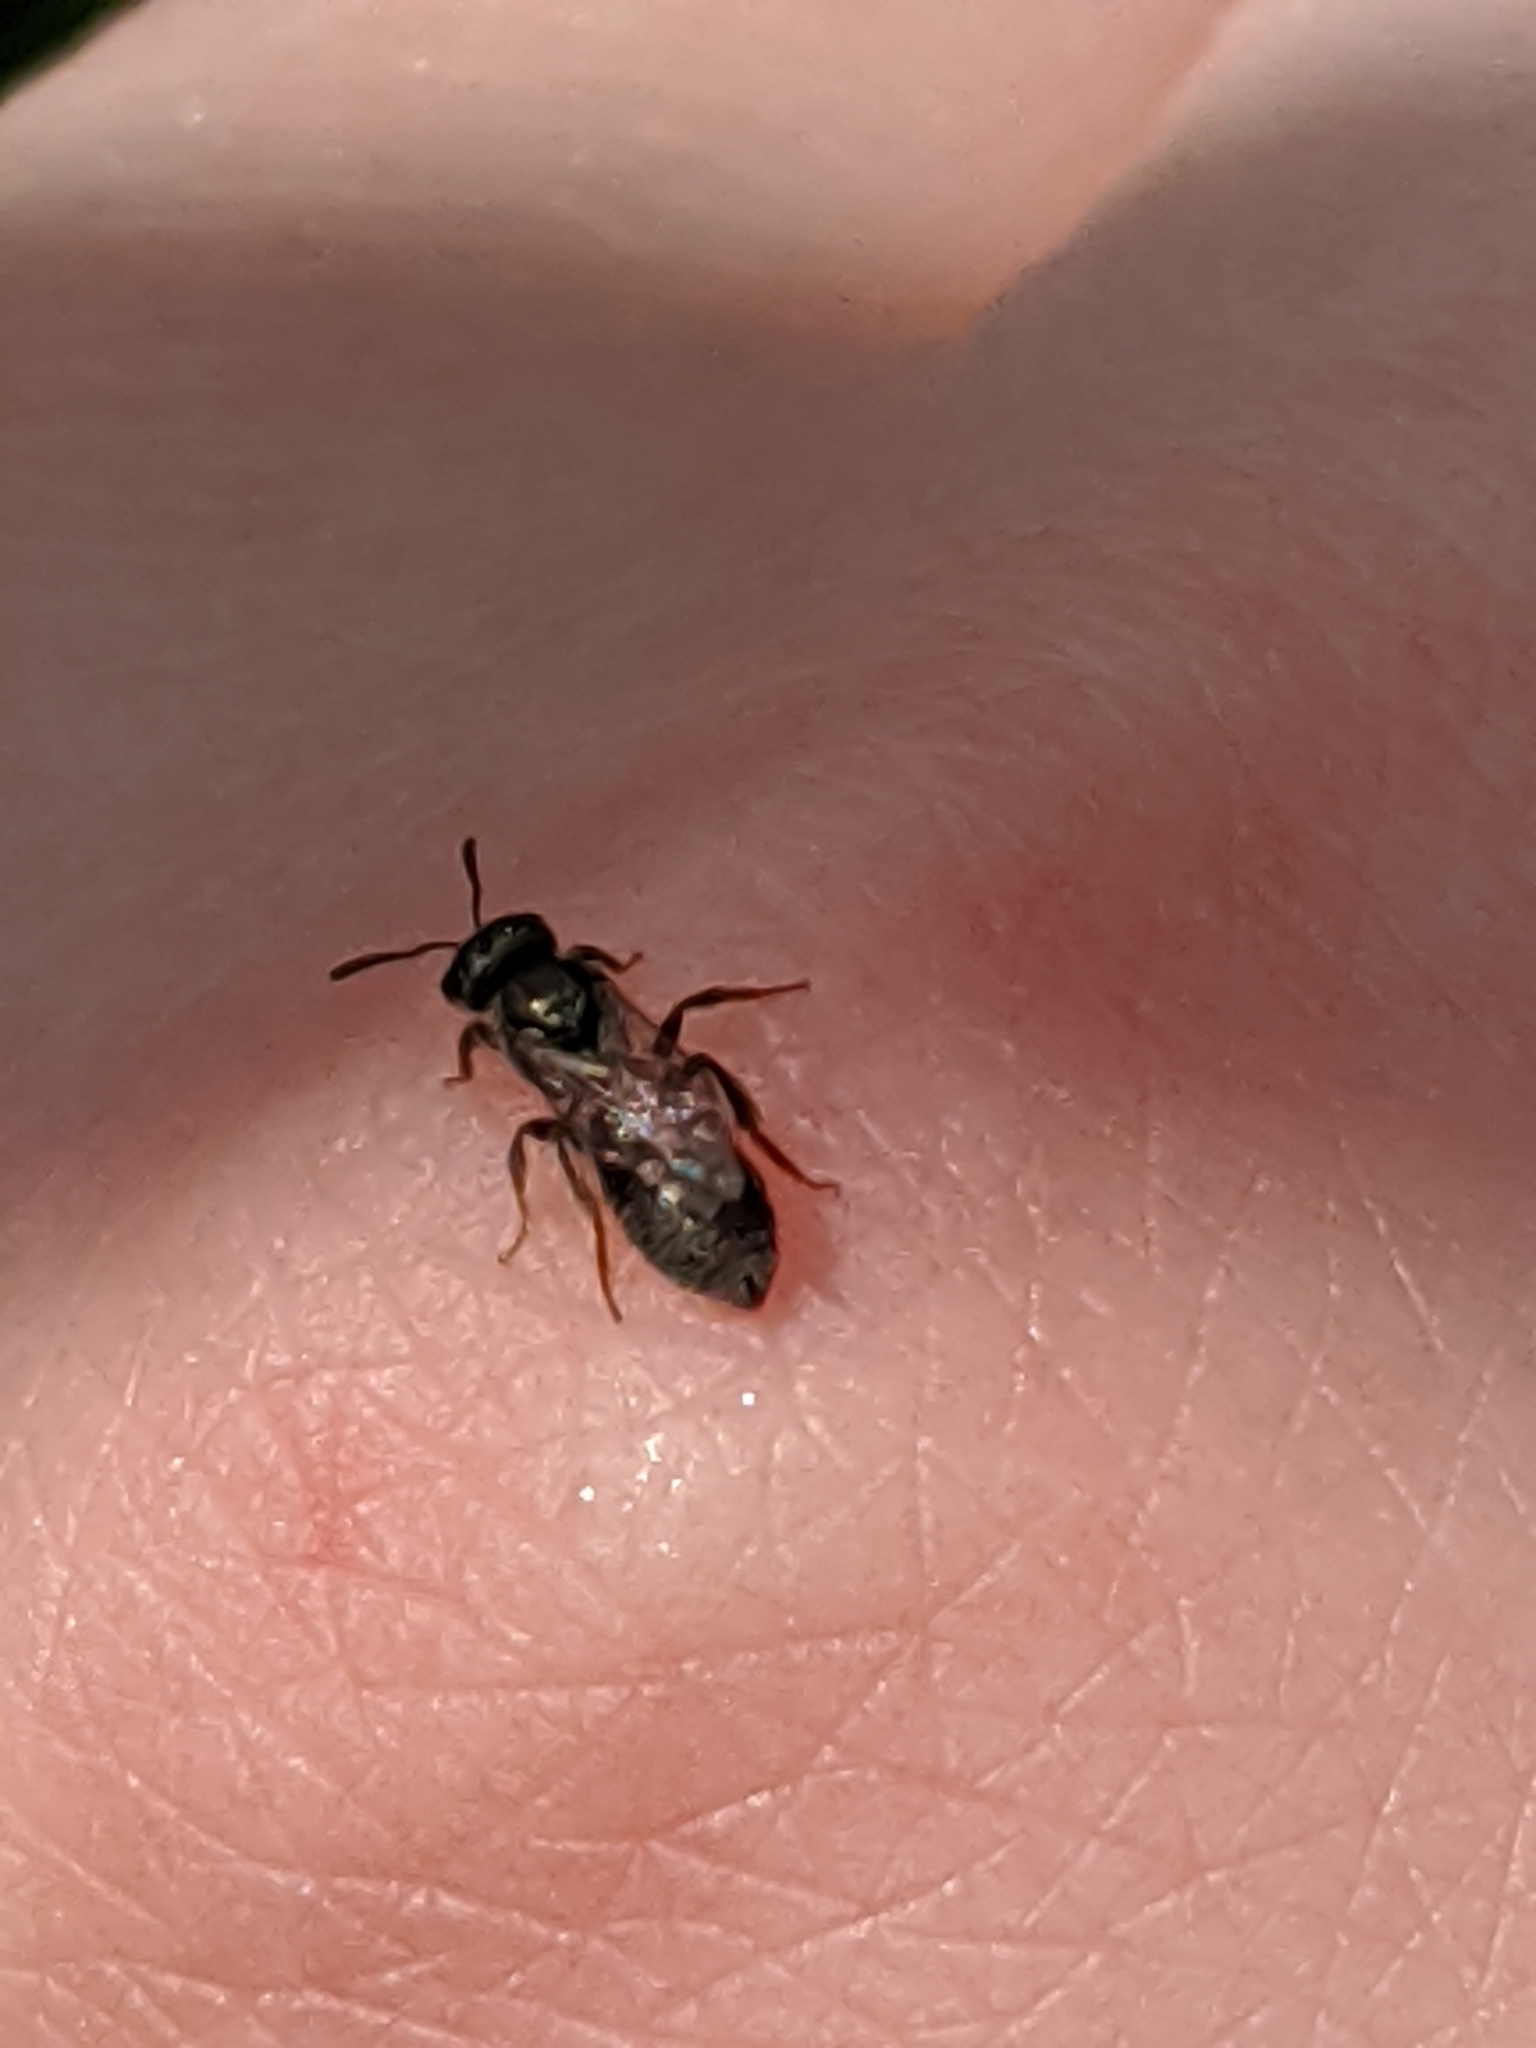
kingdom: Animalia
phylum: Arthropoda
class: Insecta
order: Hymenoptera
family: Halictidae
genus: Dialictus
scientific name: Dialictus
